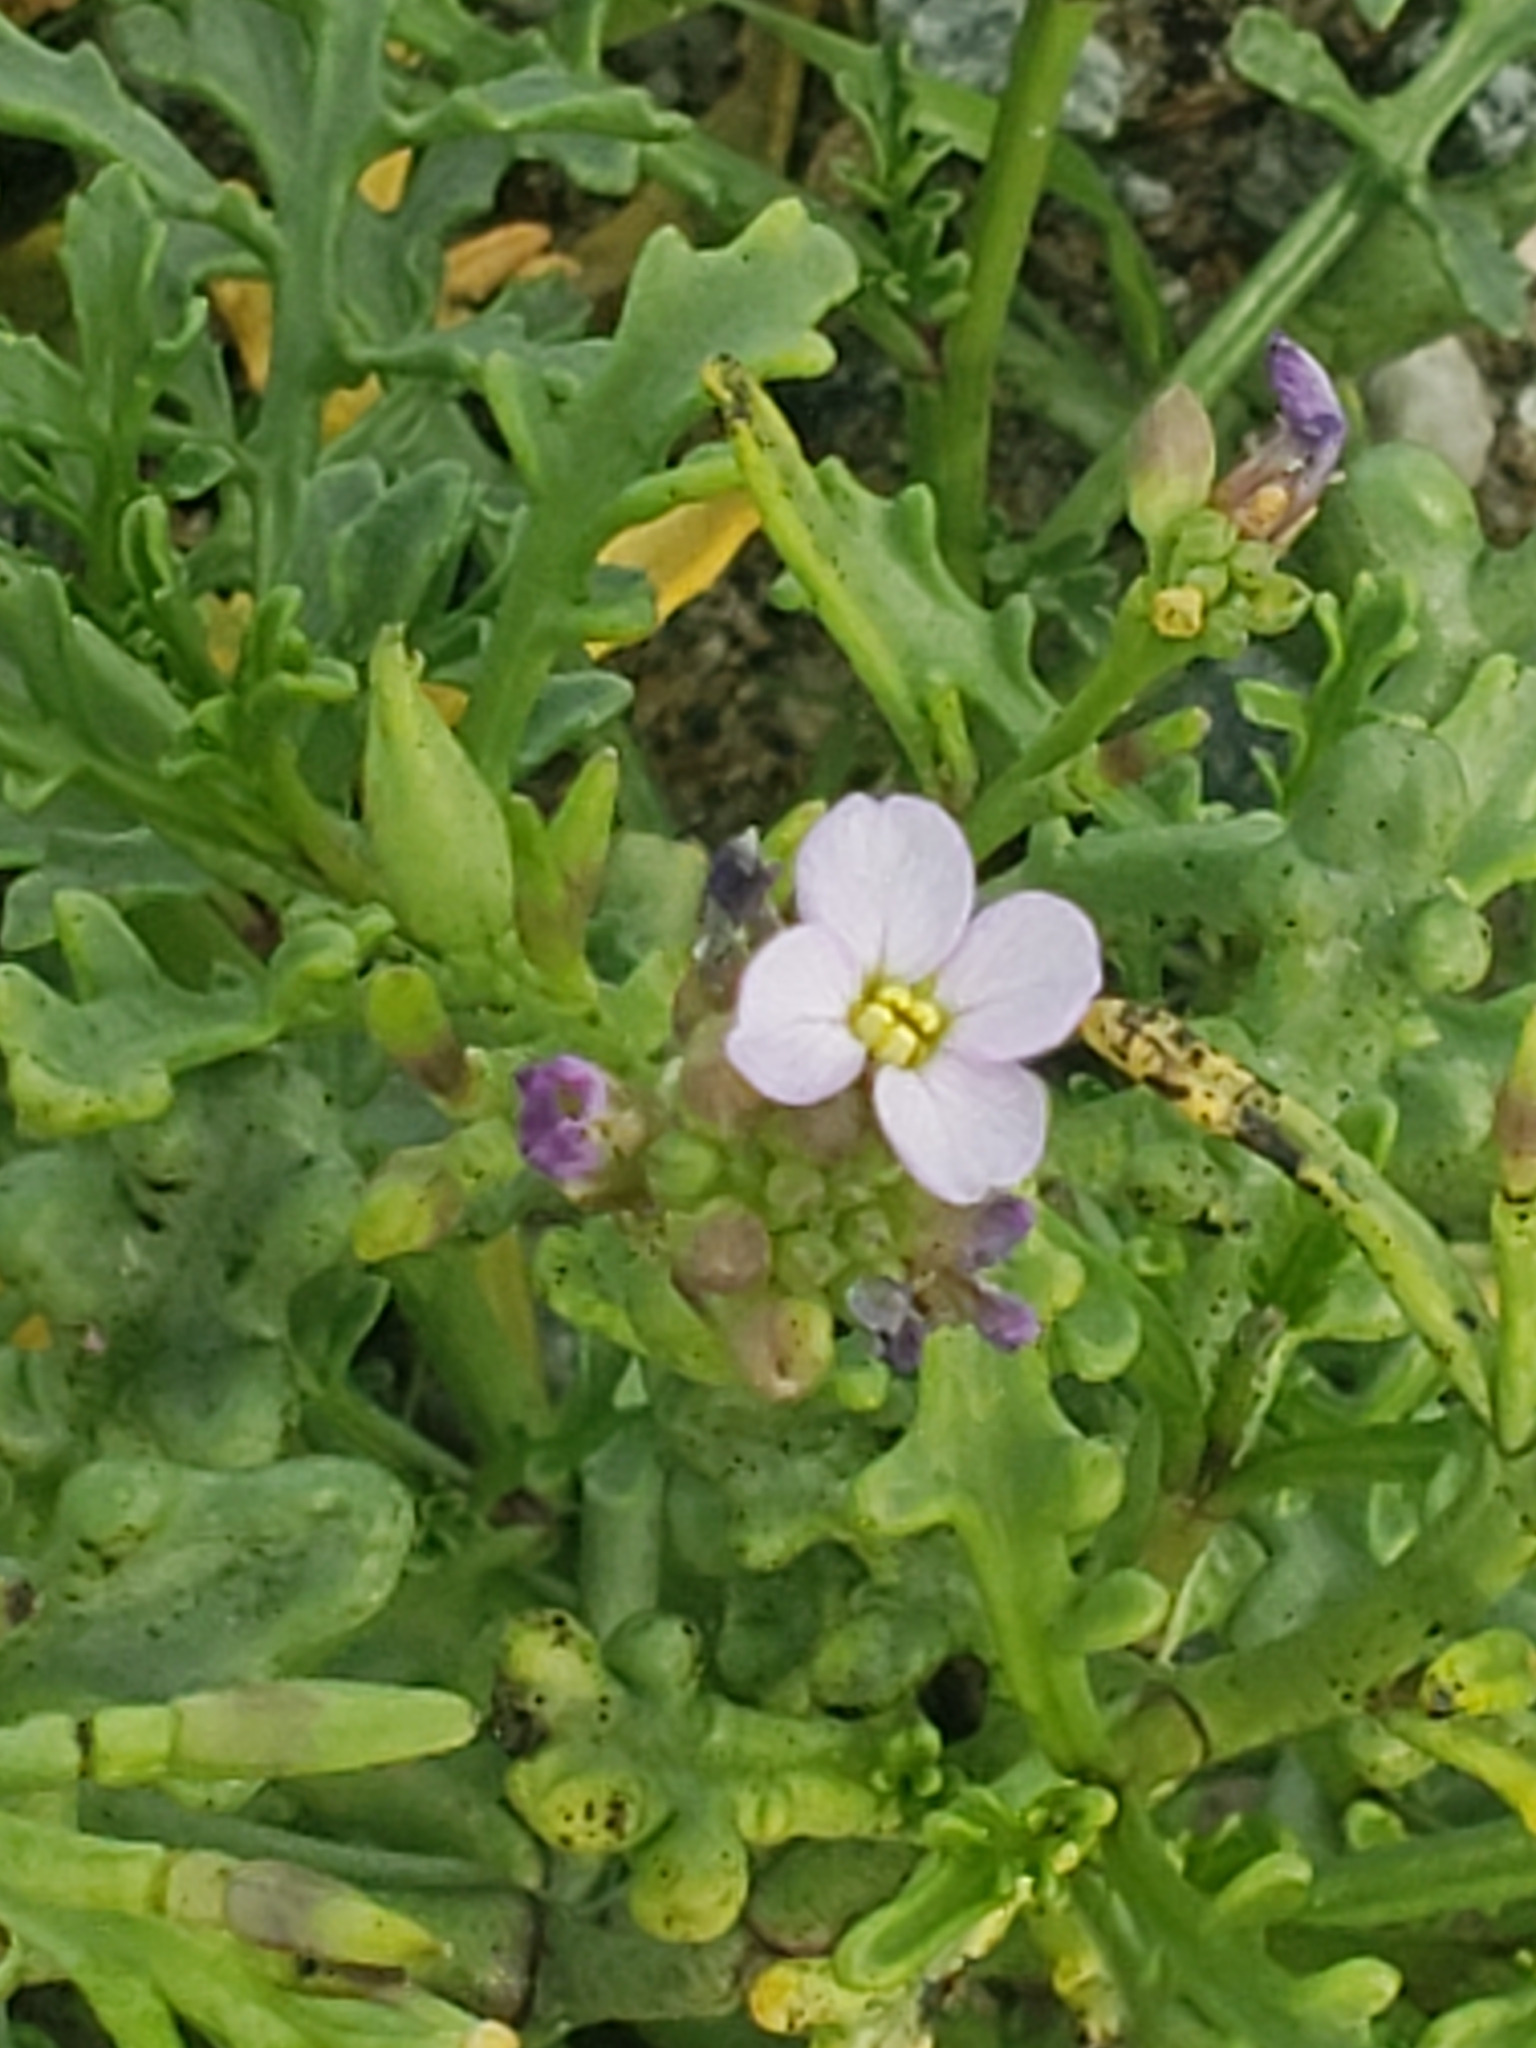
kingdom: Plantae
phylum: Tracheophyta
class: Magnoliopsida
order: Brassicales
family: Brassicaceae
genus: Cakile
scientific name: Cakile maritima
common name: Sea rocket
